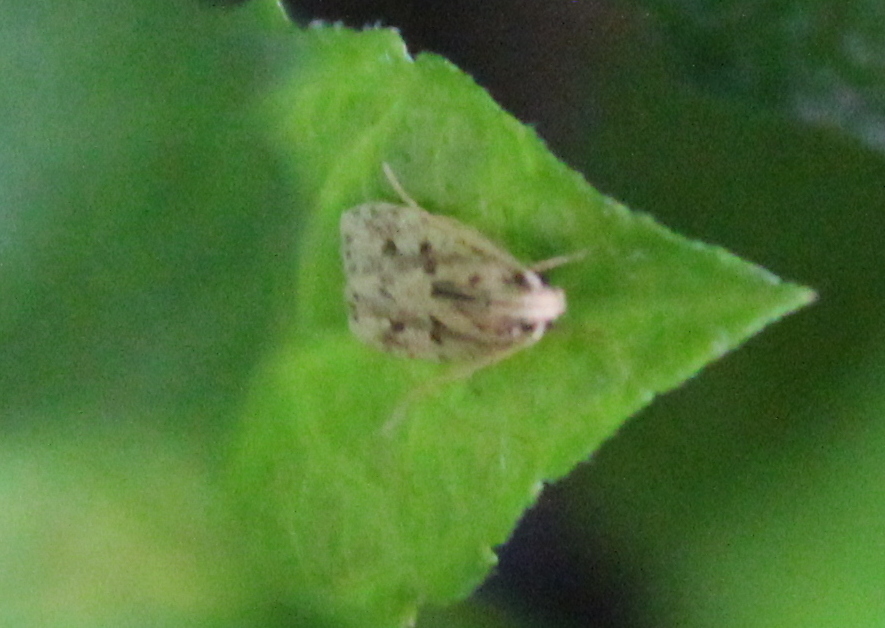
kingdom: Animalia
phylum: Arthropoda
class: Insecta
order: Lepidoptera
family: Autostichidae
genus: Stoeberhinus
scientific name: Stoeberhinus testaceus
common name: Moth
